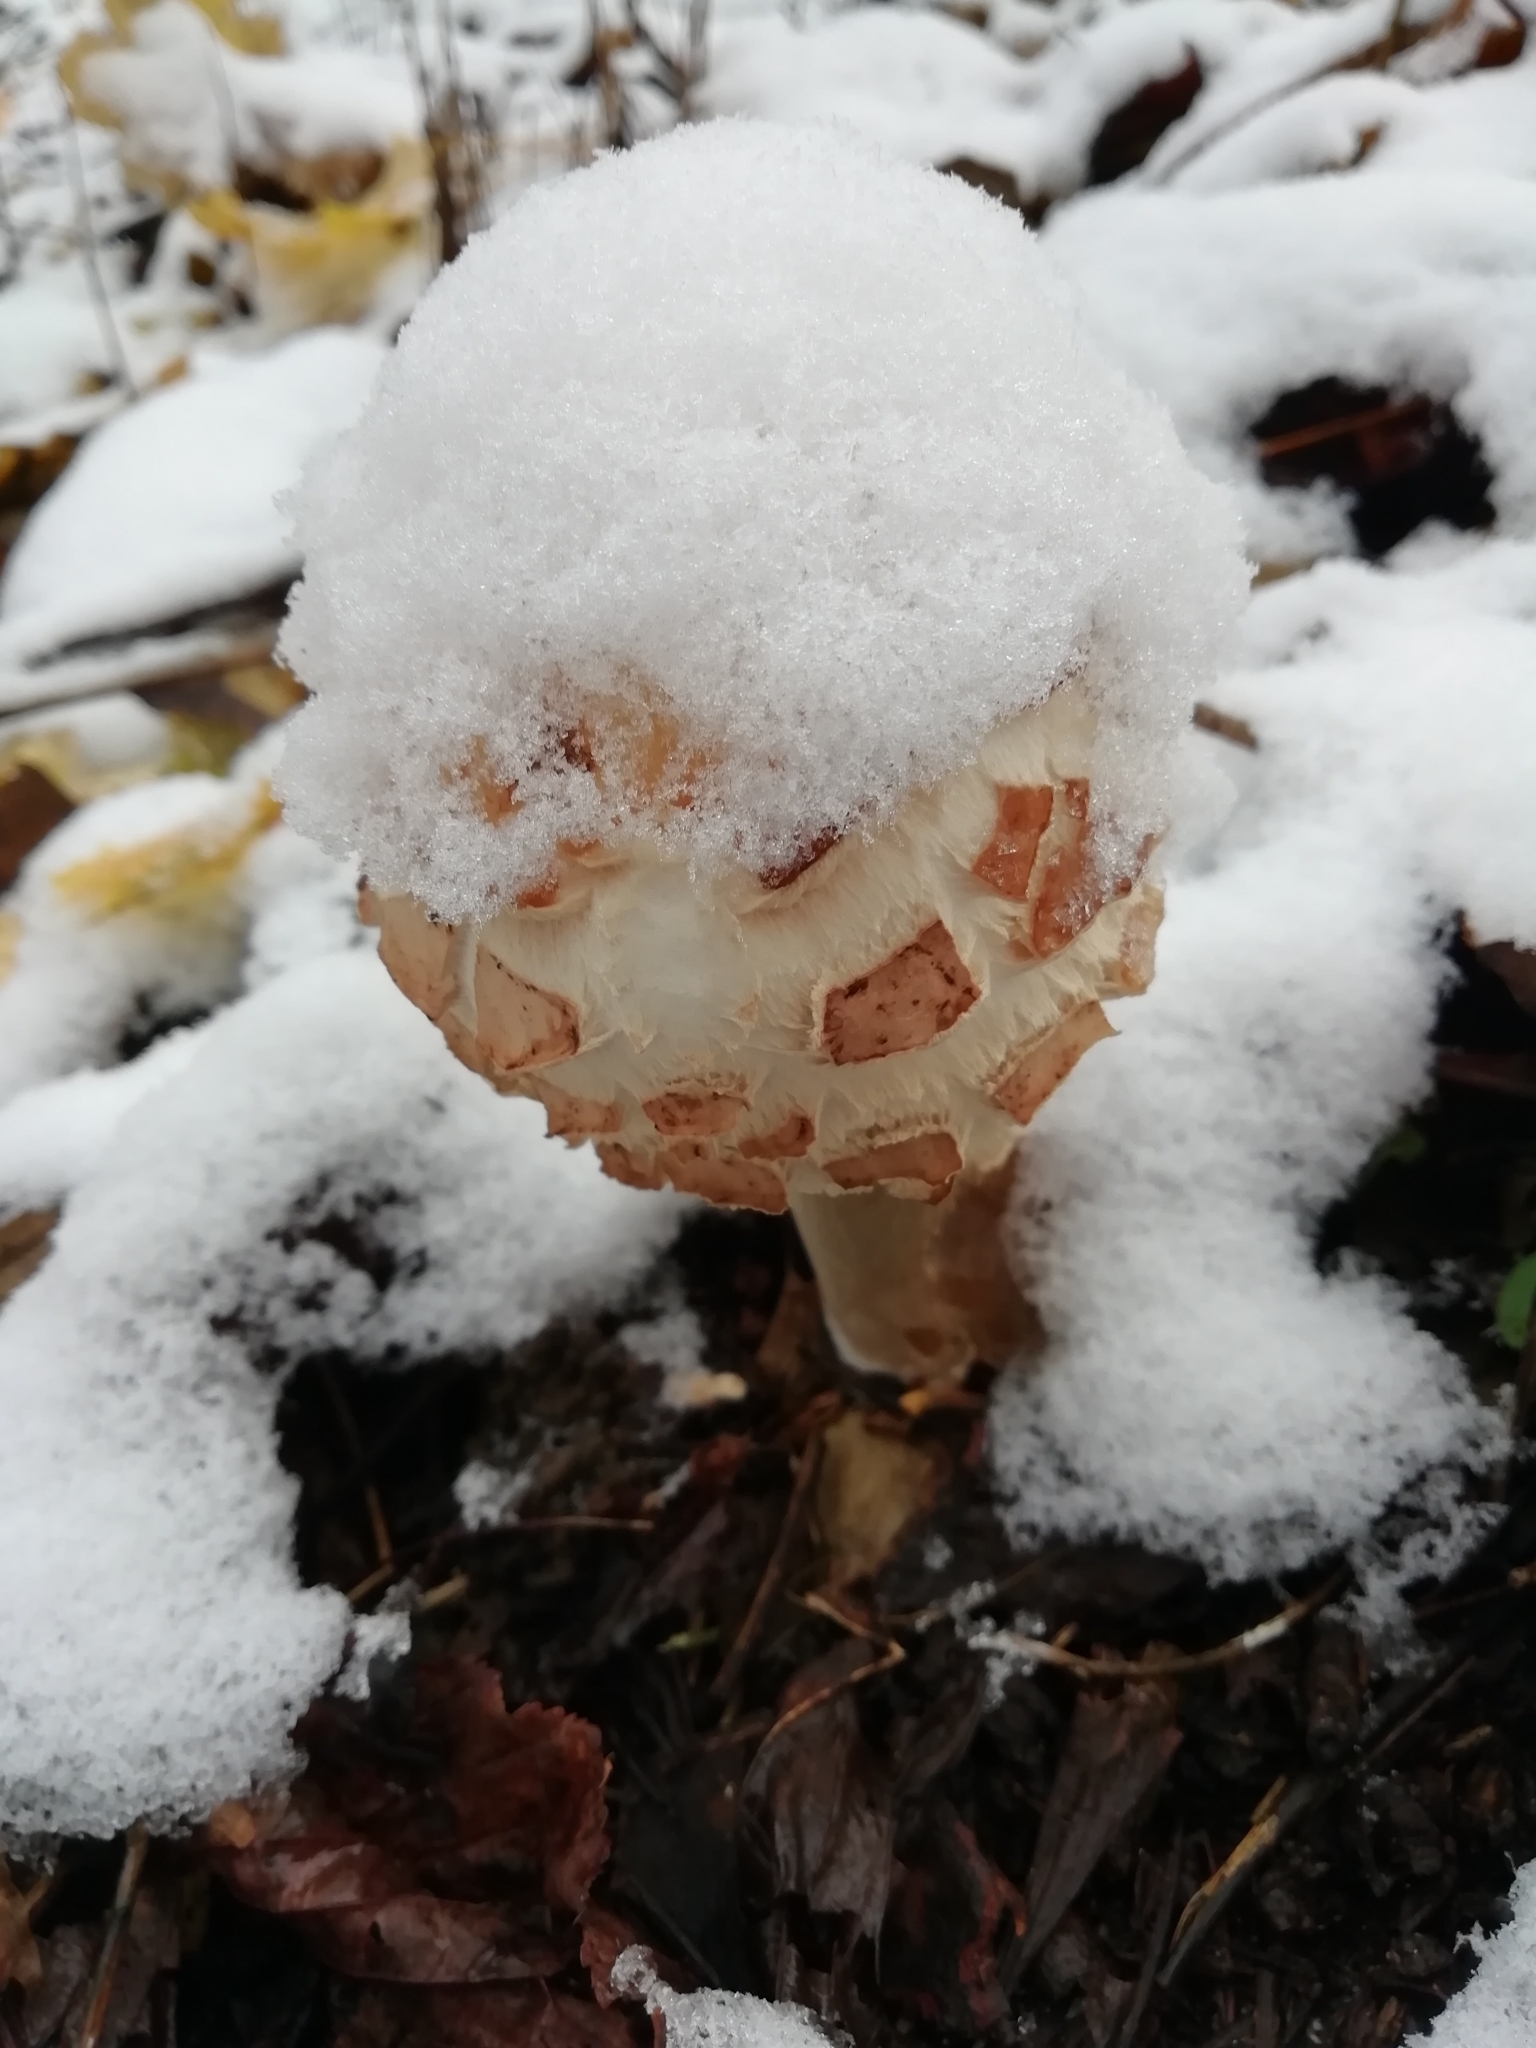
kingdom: Fungi
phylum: Basidiomycota
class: Agaricomycetes
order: Agaricales
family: Agaricaceae
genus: Chlorophyllum
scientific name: Chlorophyllum rhacodes
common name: Shaggy parasol
